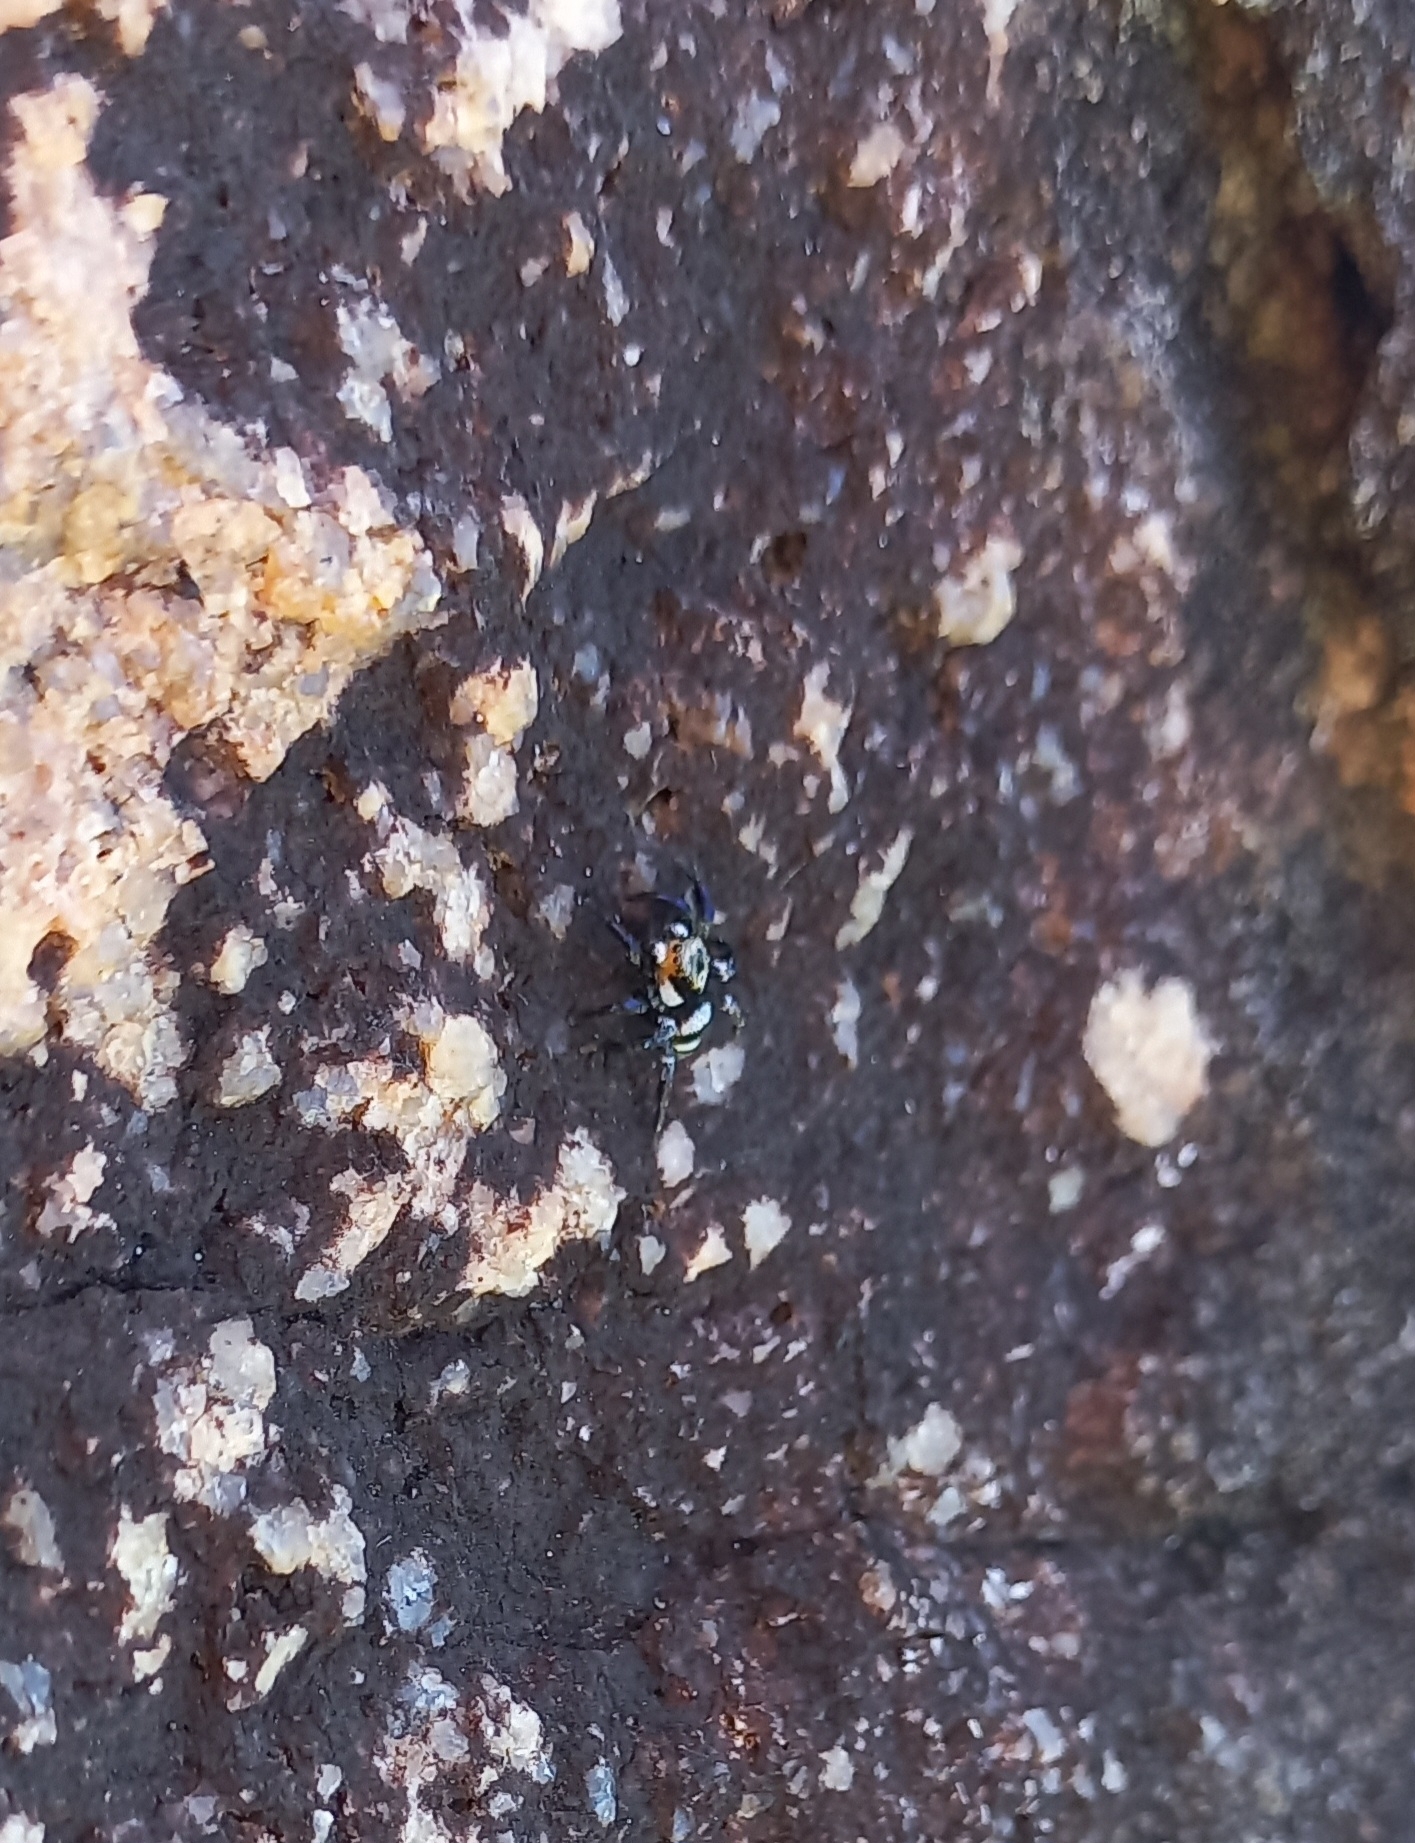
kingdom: Animalia
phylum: Arthropoda
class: Arachnida
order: Araneae
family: Salticidae
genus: Corythalia
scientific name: Corythalia argentinensis
